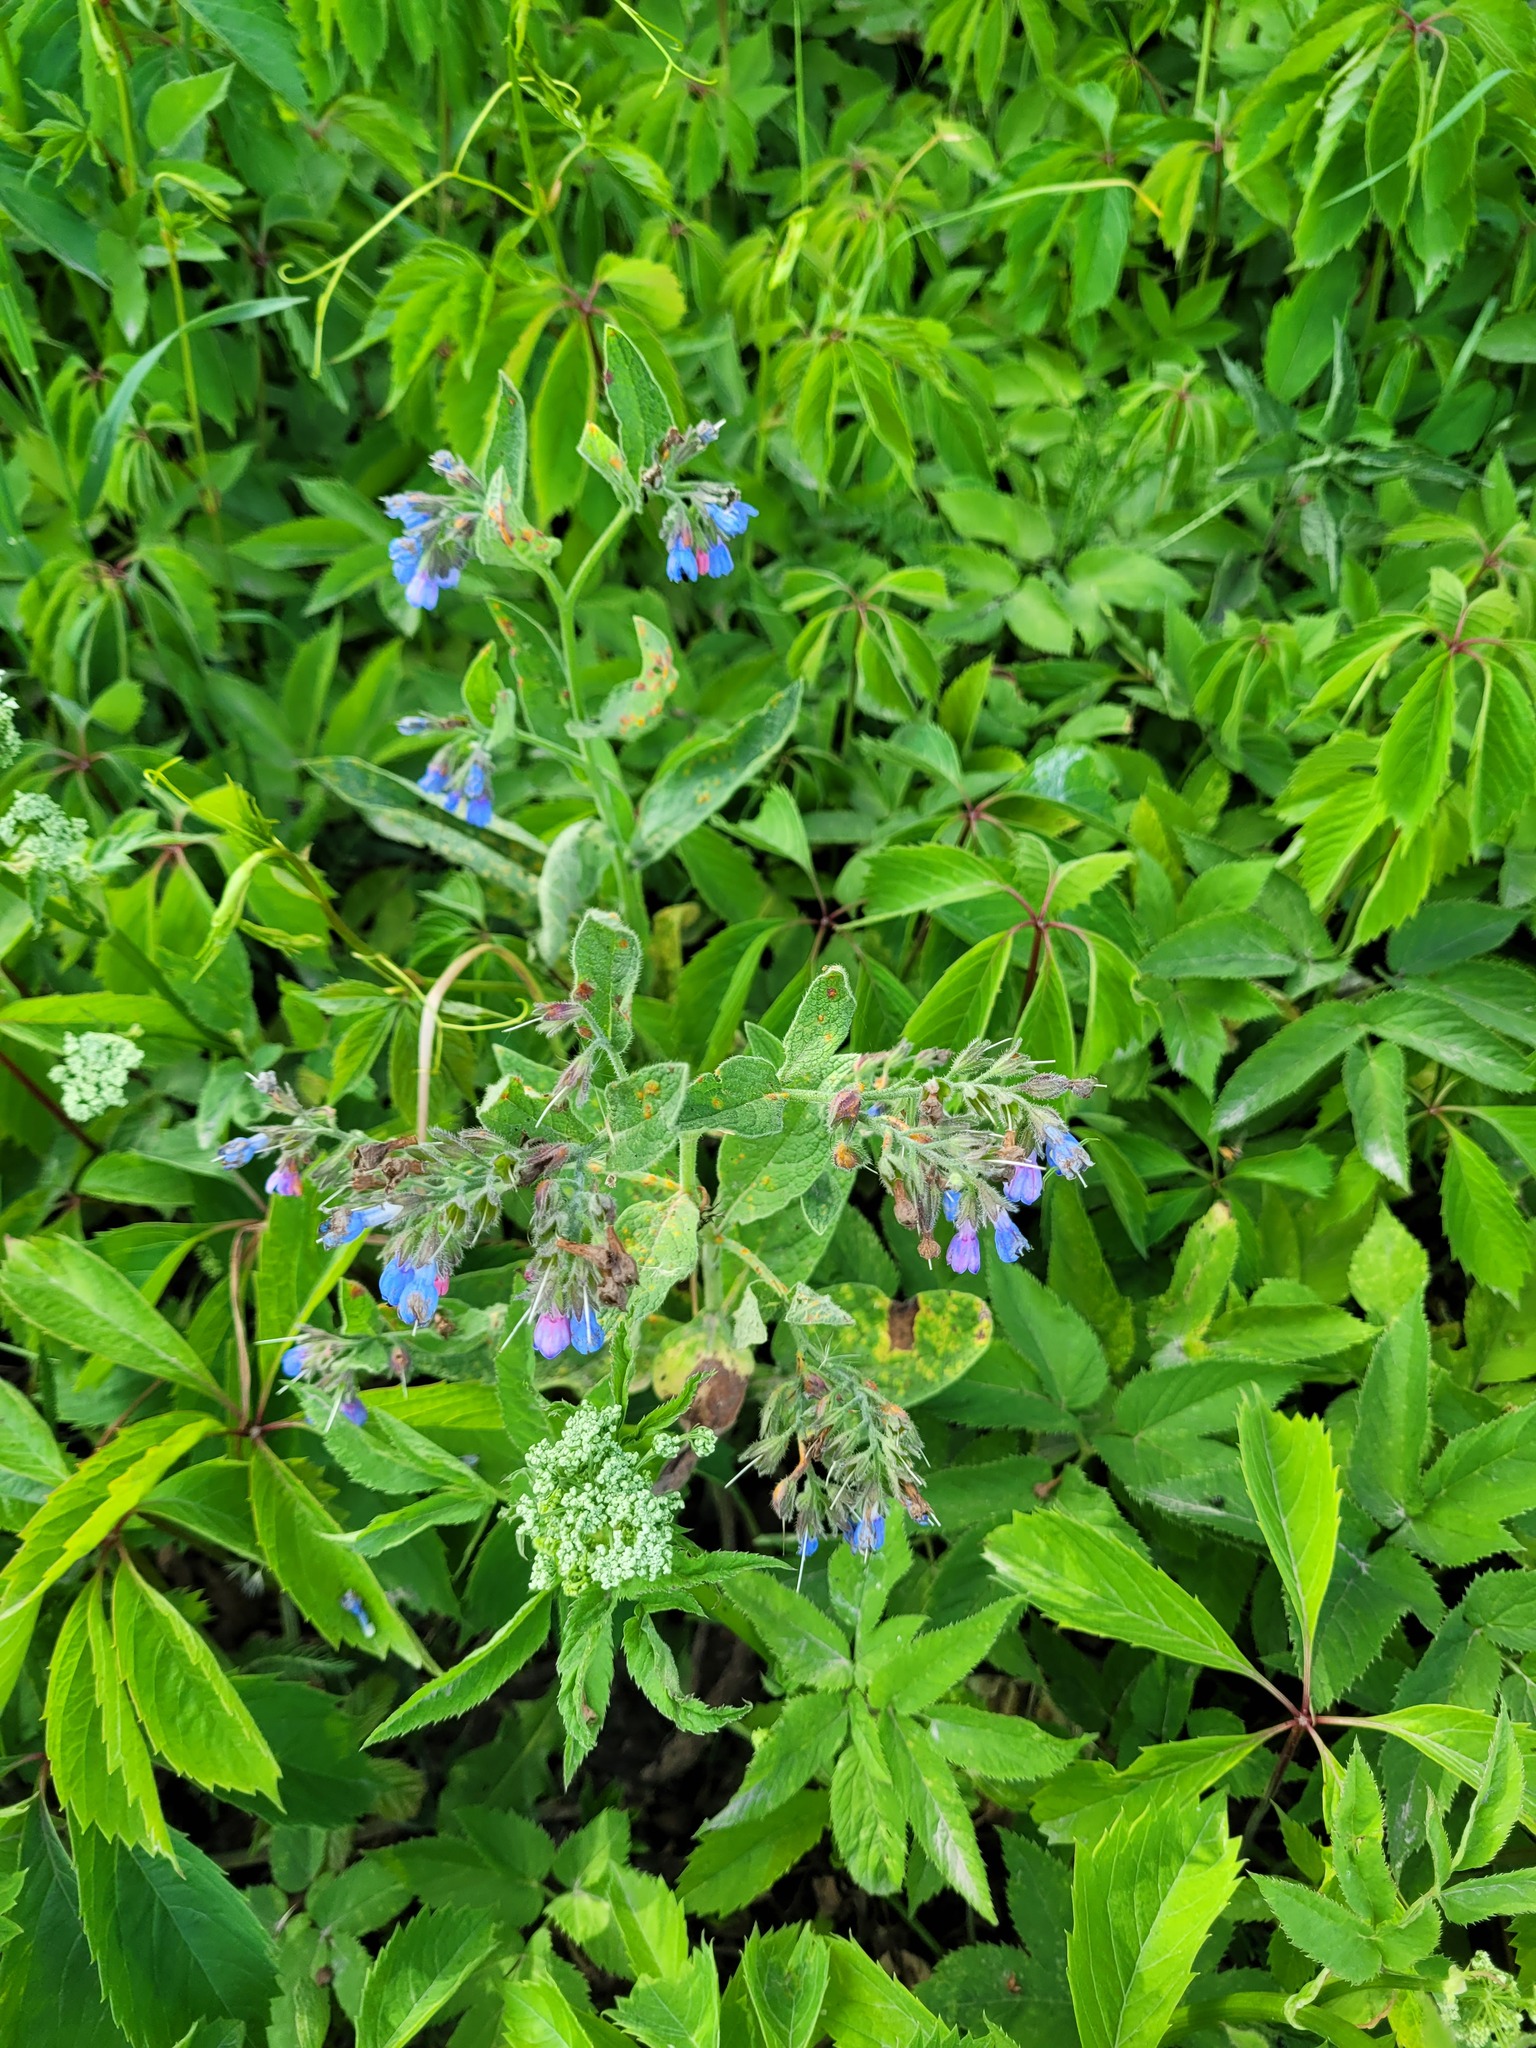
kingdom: Plantae
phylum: Tracheophyta
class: Magnoliopsida
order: Boraginales
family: Boraginaceae
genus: Symphytum
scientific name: Symphytum caucasicum
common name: Caucasian comfrey
